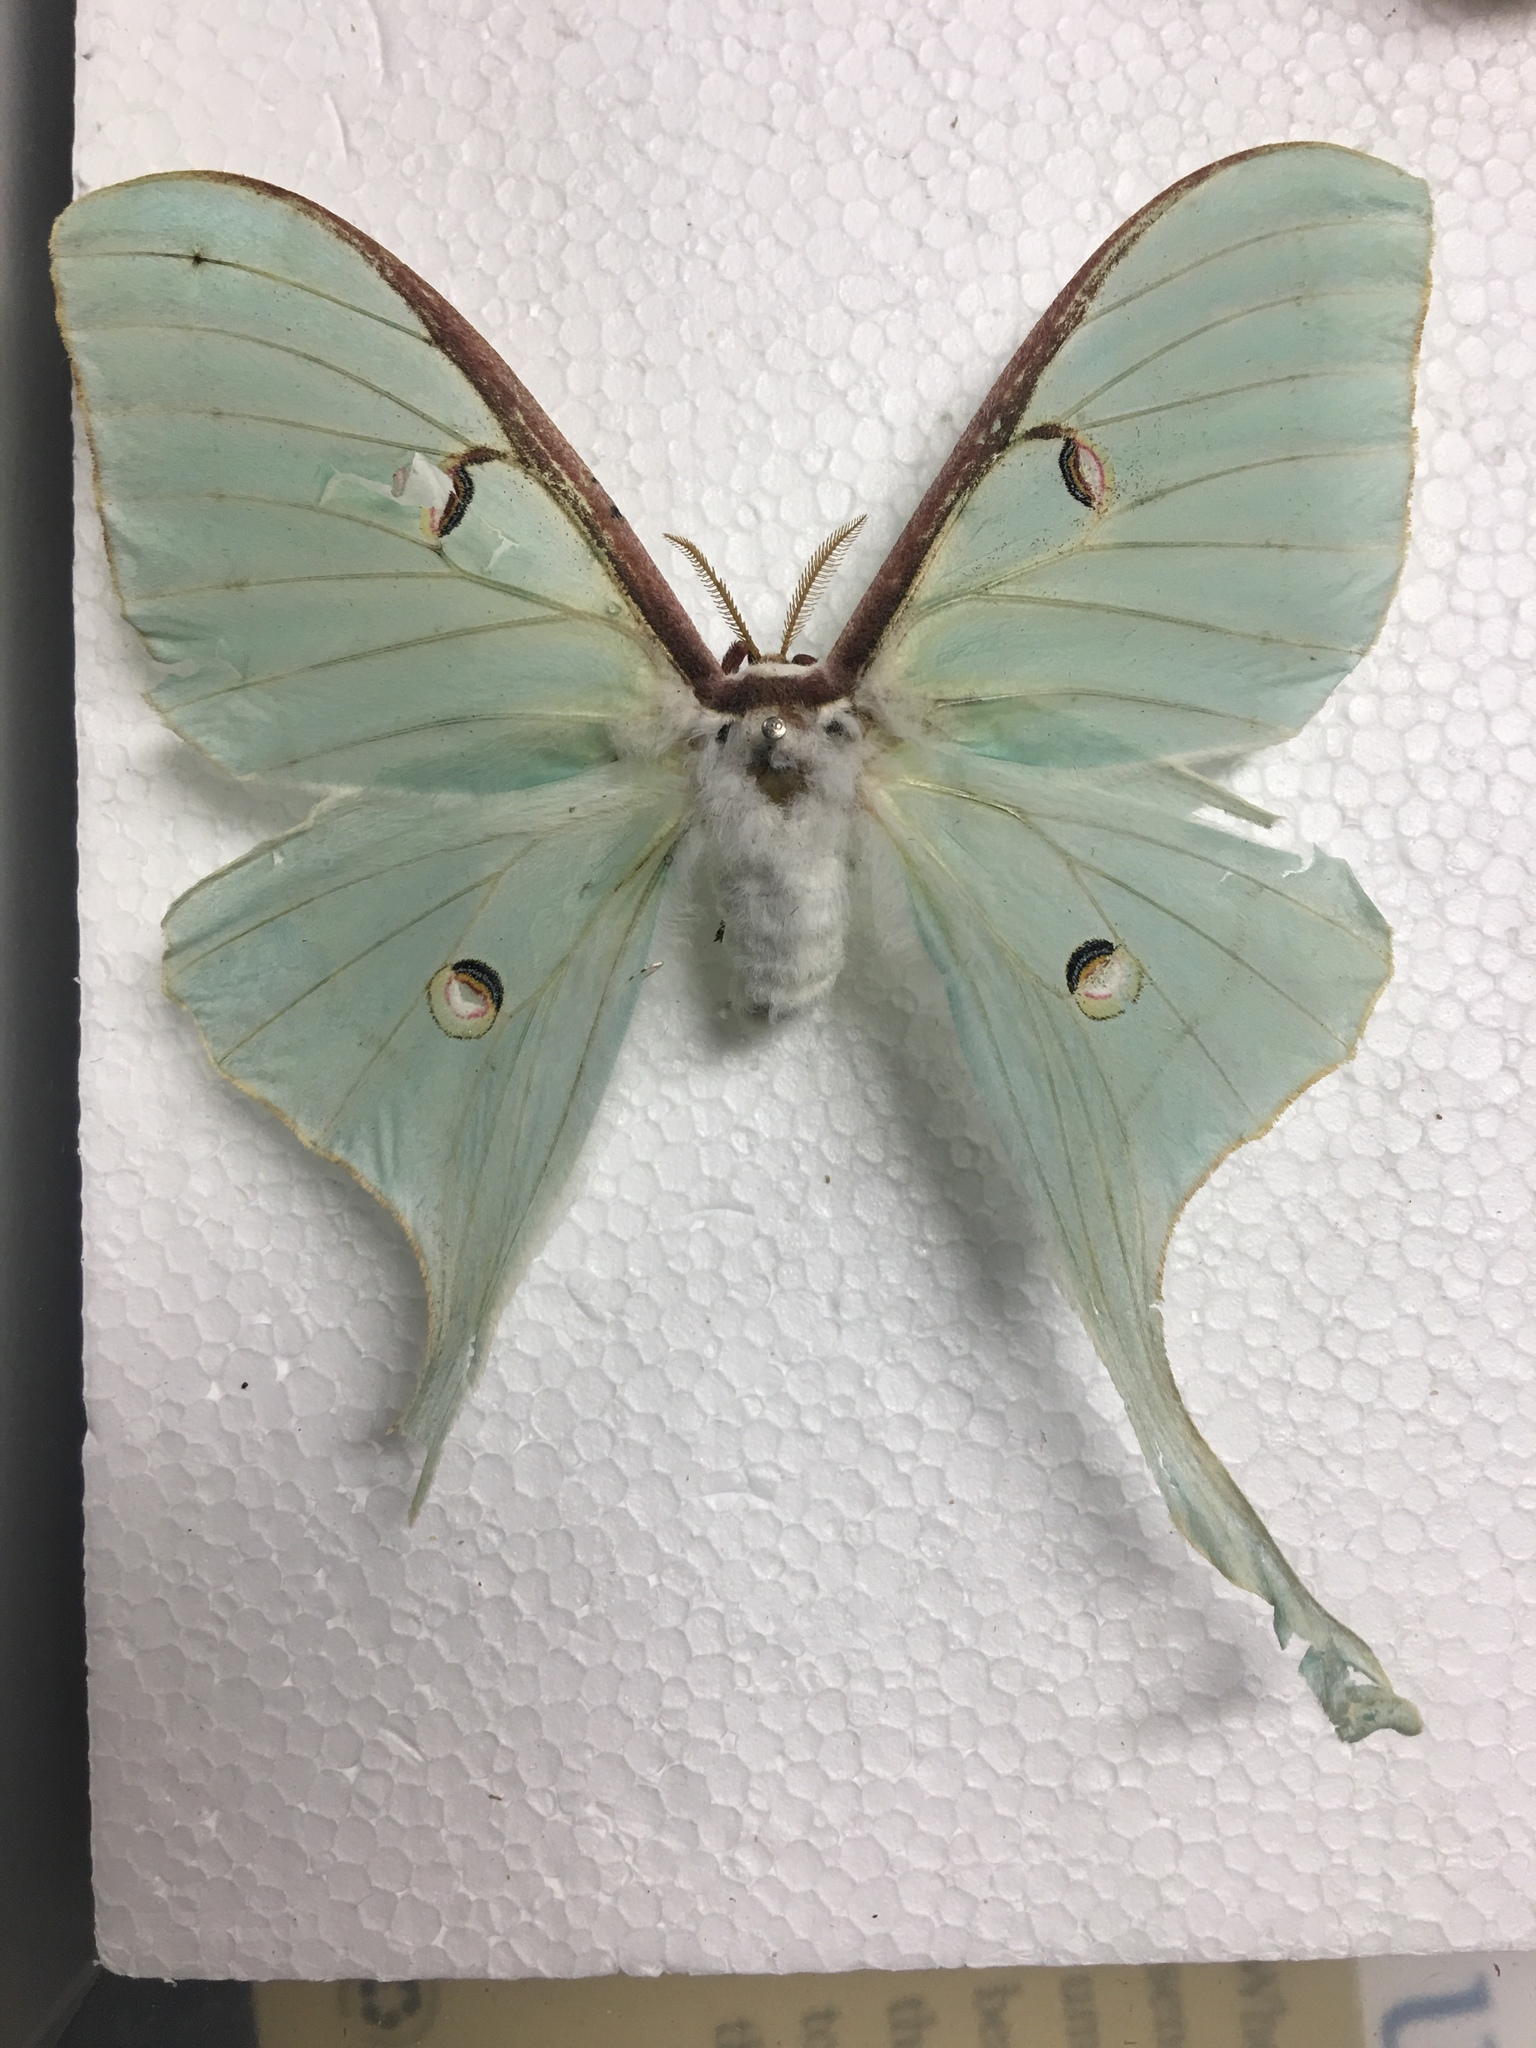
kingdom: Animalia
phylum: Arthropoda
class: Insecta
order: Lepidoptera
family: Saturniidae
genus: Actias
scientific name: Actias luna
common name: Luna moth
